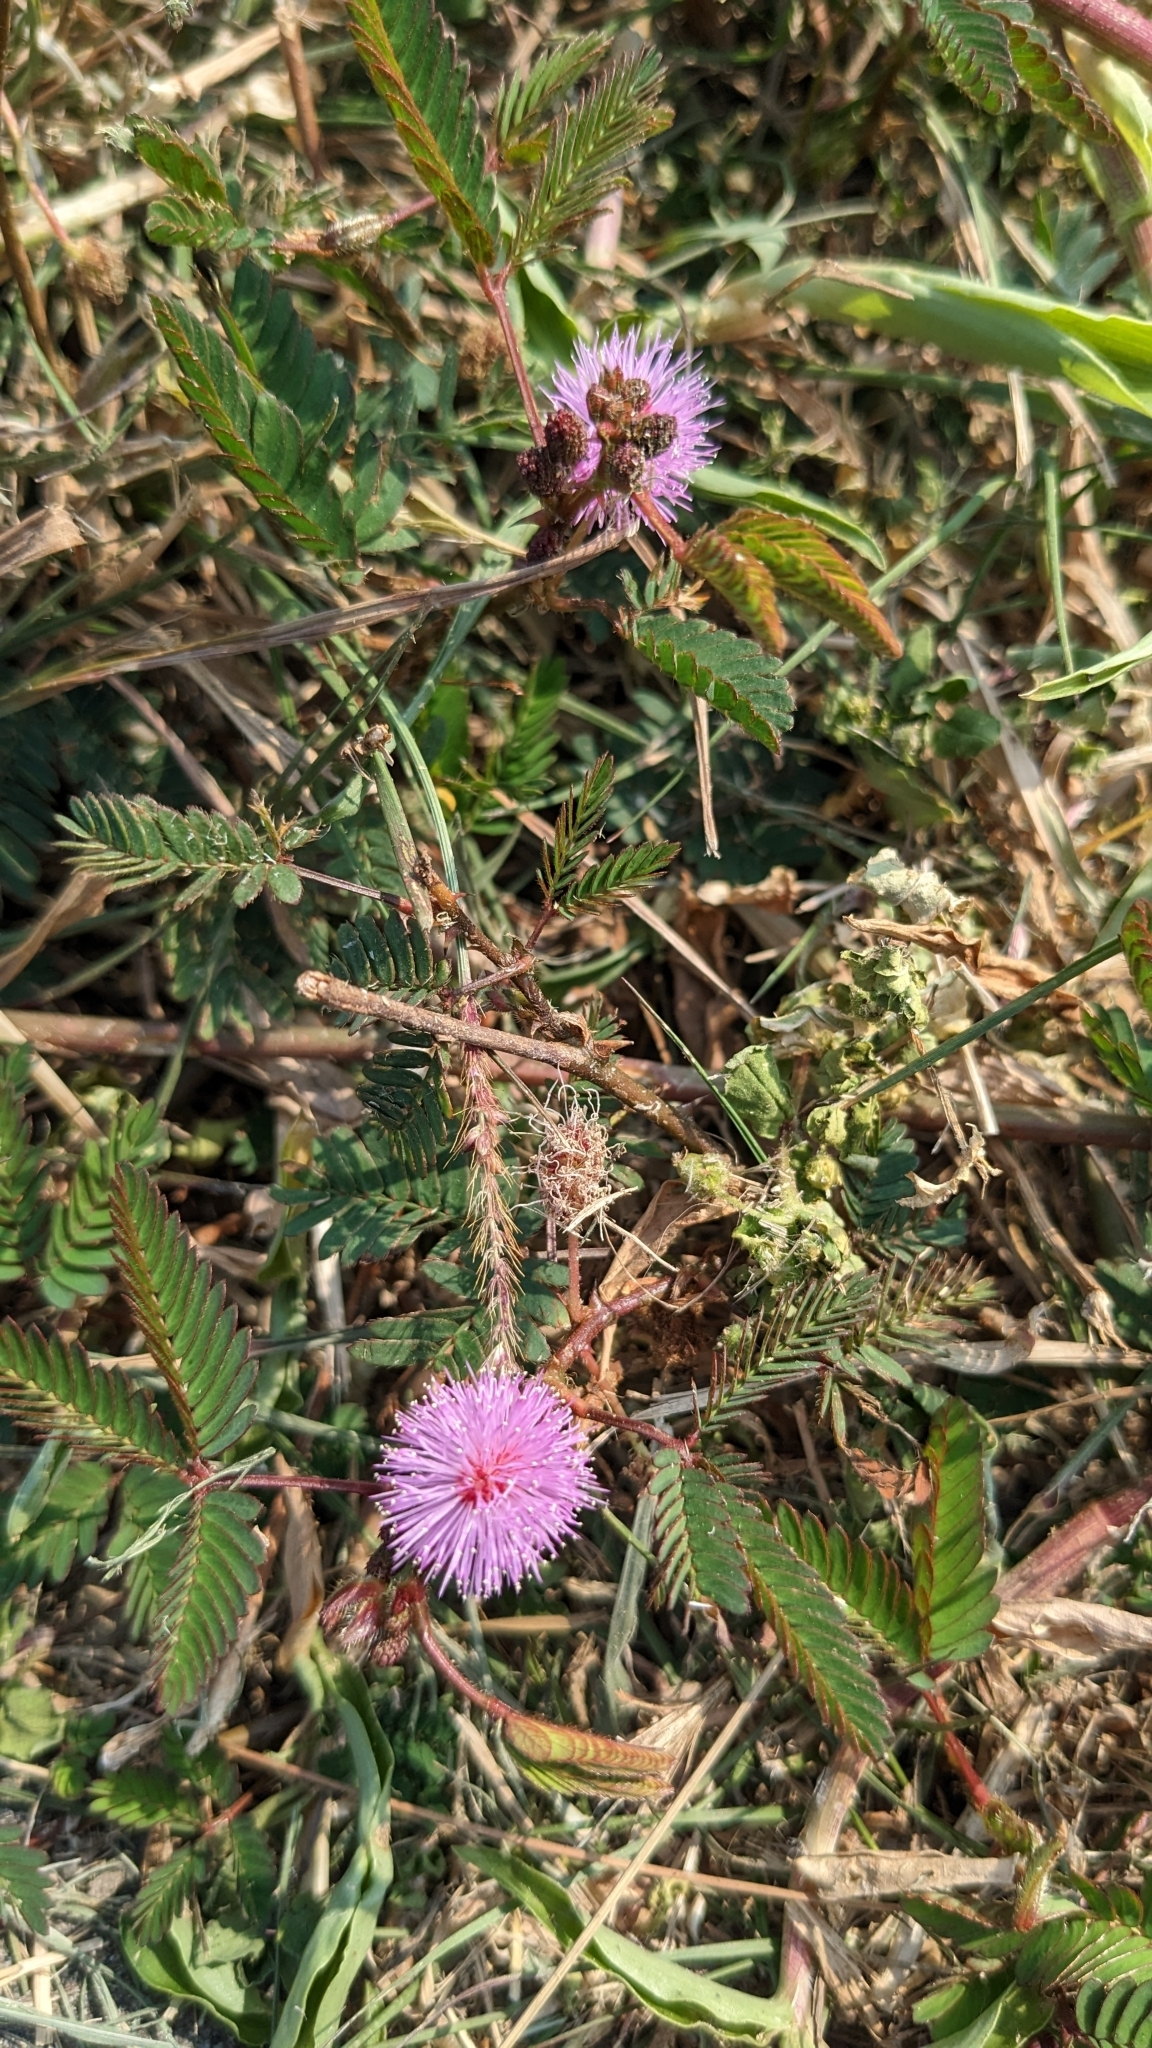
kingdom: Plantae
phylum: Tracheophyta
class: Magnoliopsida
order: Fabales
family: Fabaceae
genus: Mimosa
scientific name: Mimosa pudica
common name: Sensitive plant
